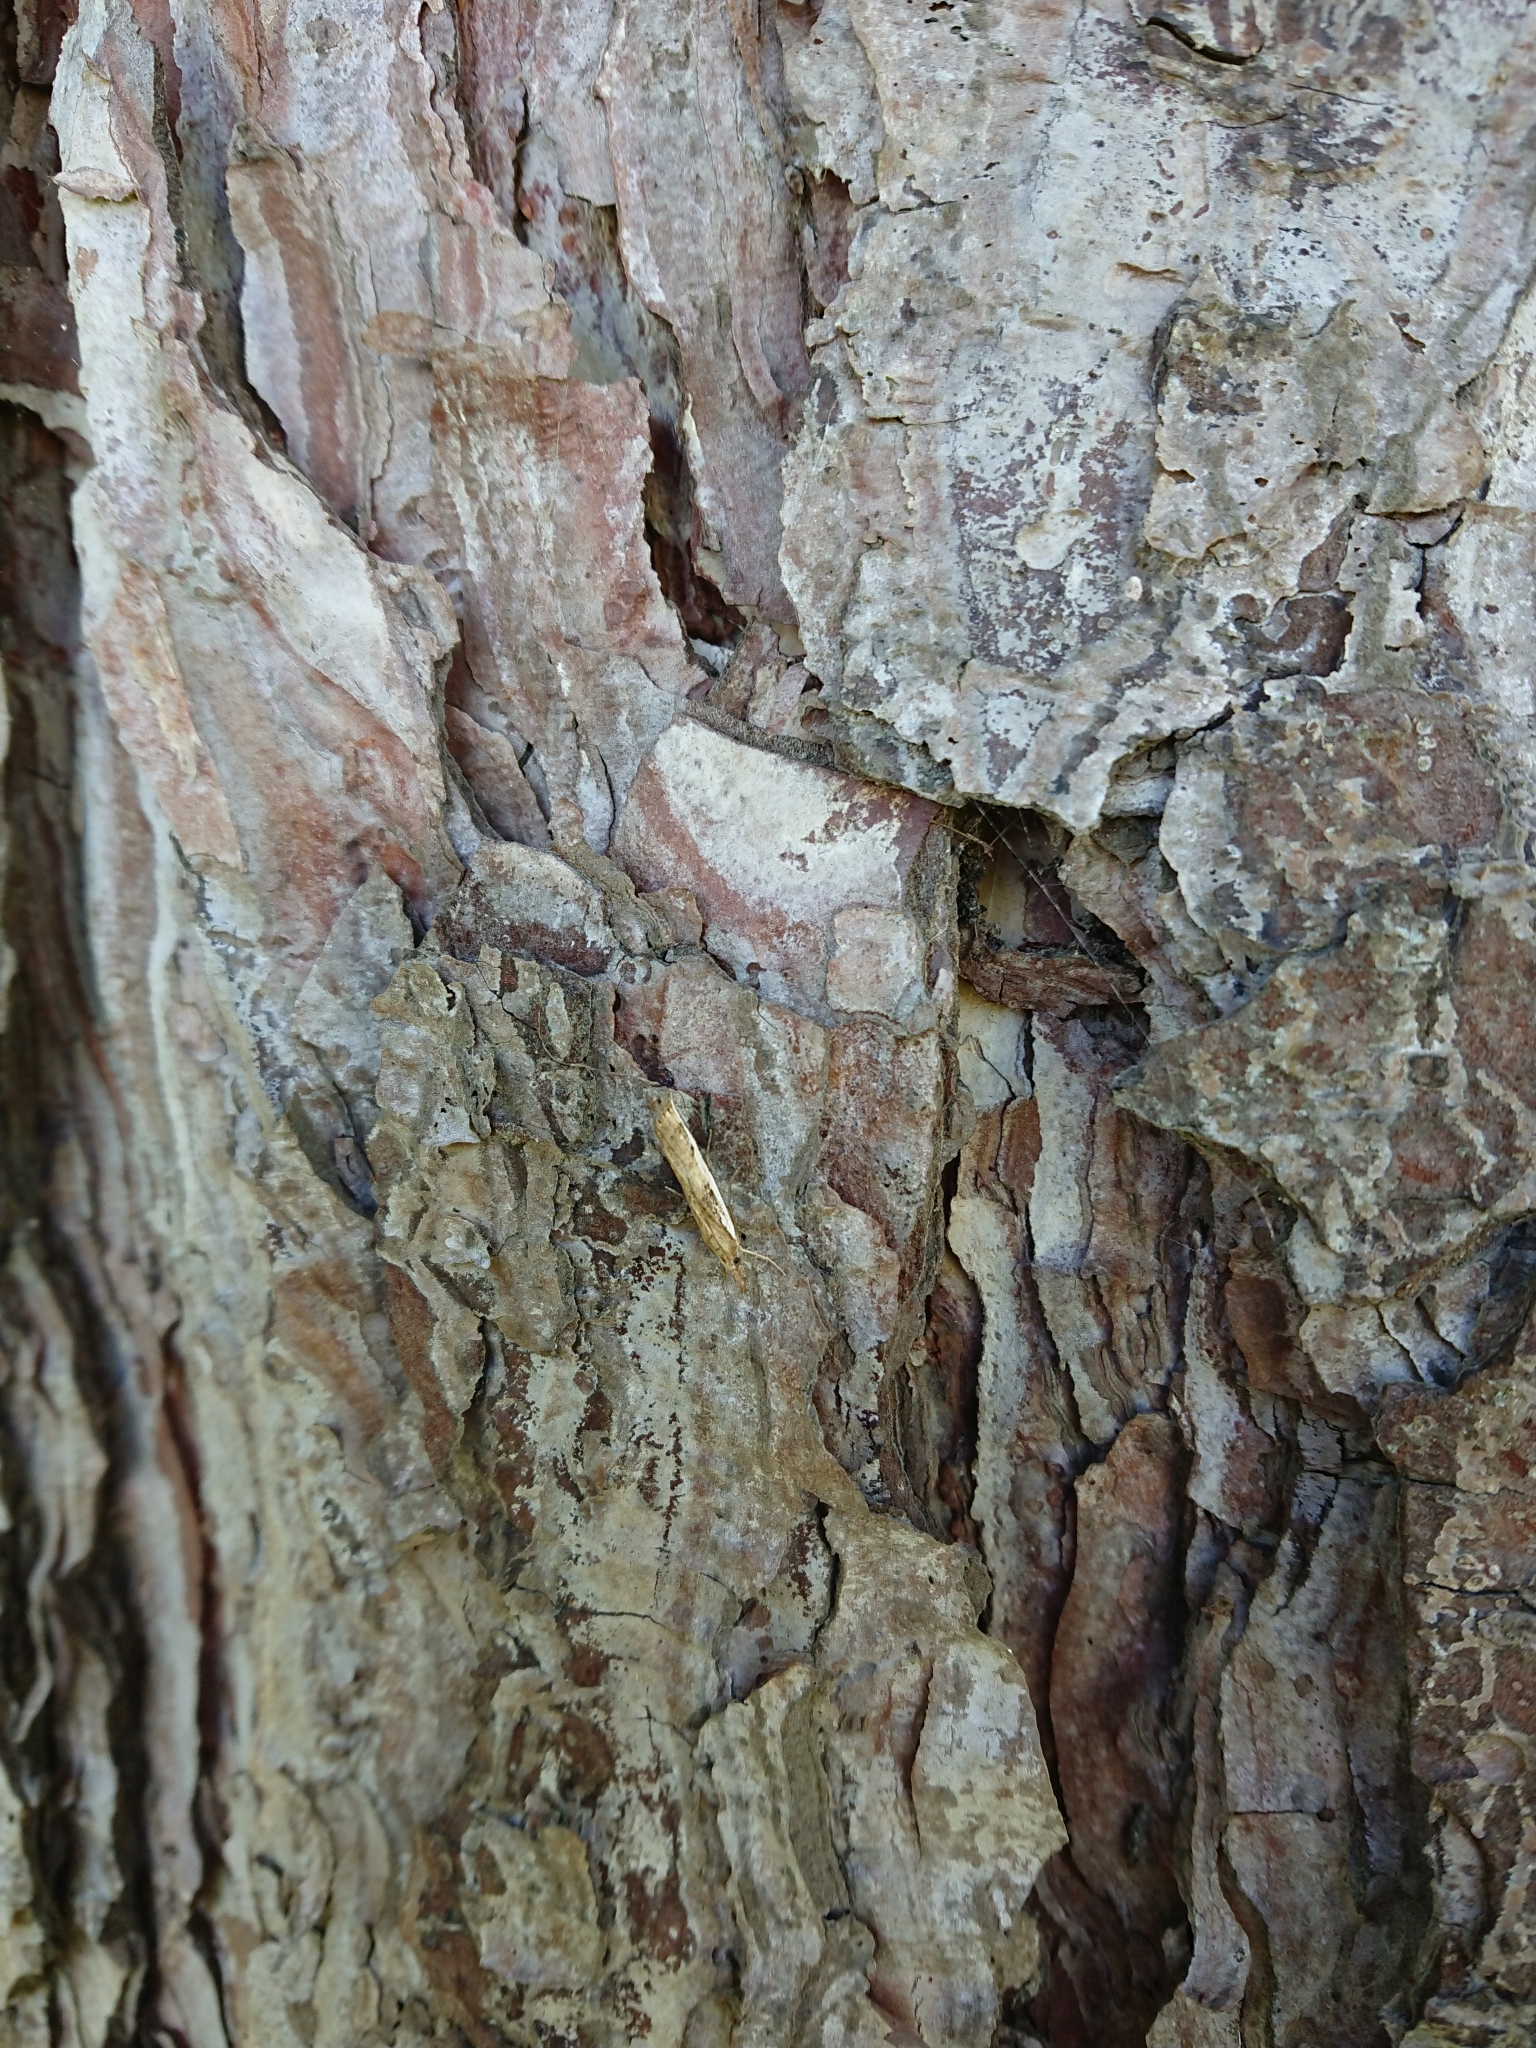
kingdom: Animalia
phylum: Arthropoda
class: Insecta
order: Lepidoptera
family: Crambidae
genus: Orocrambus
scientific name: Orocrambus flexuosellus
